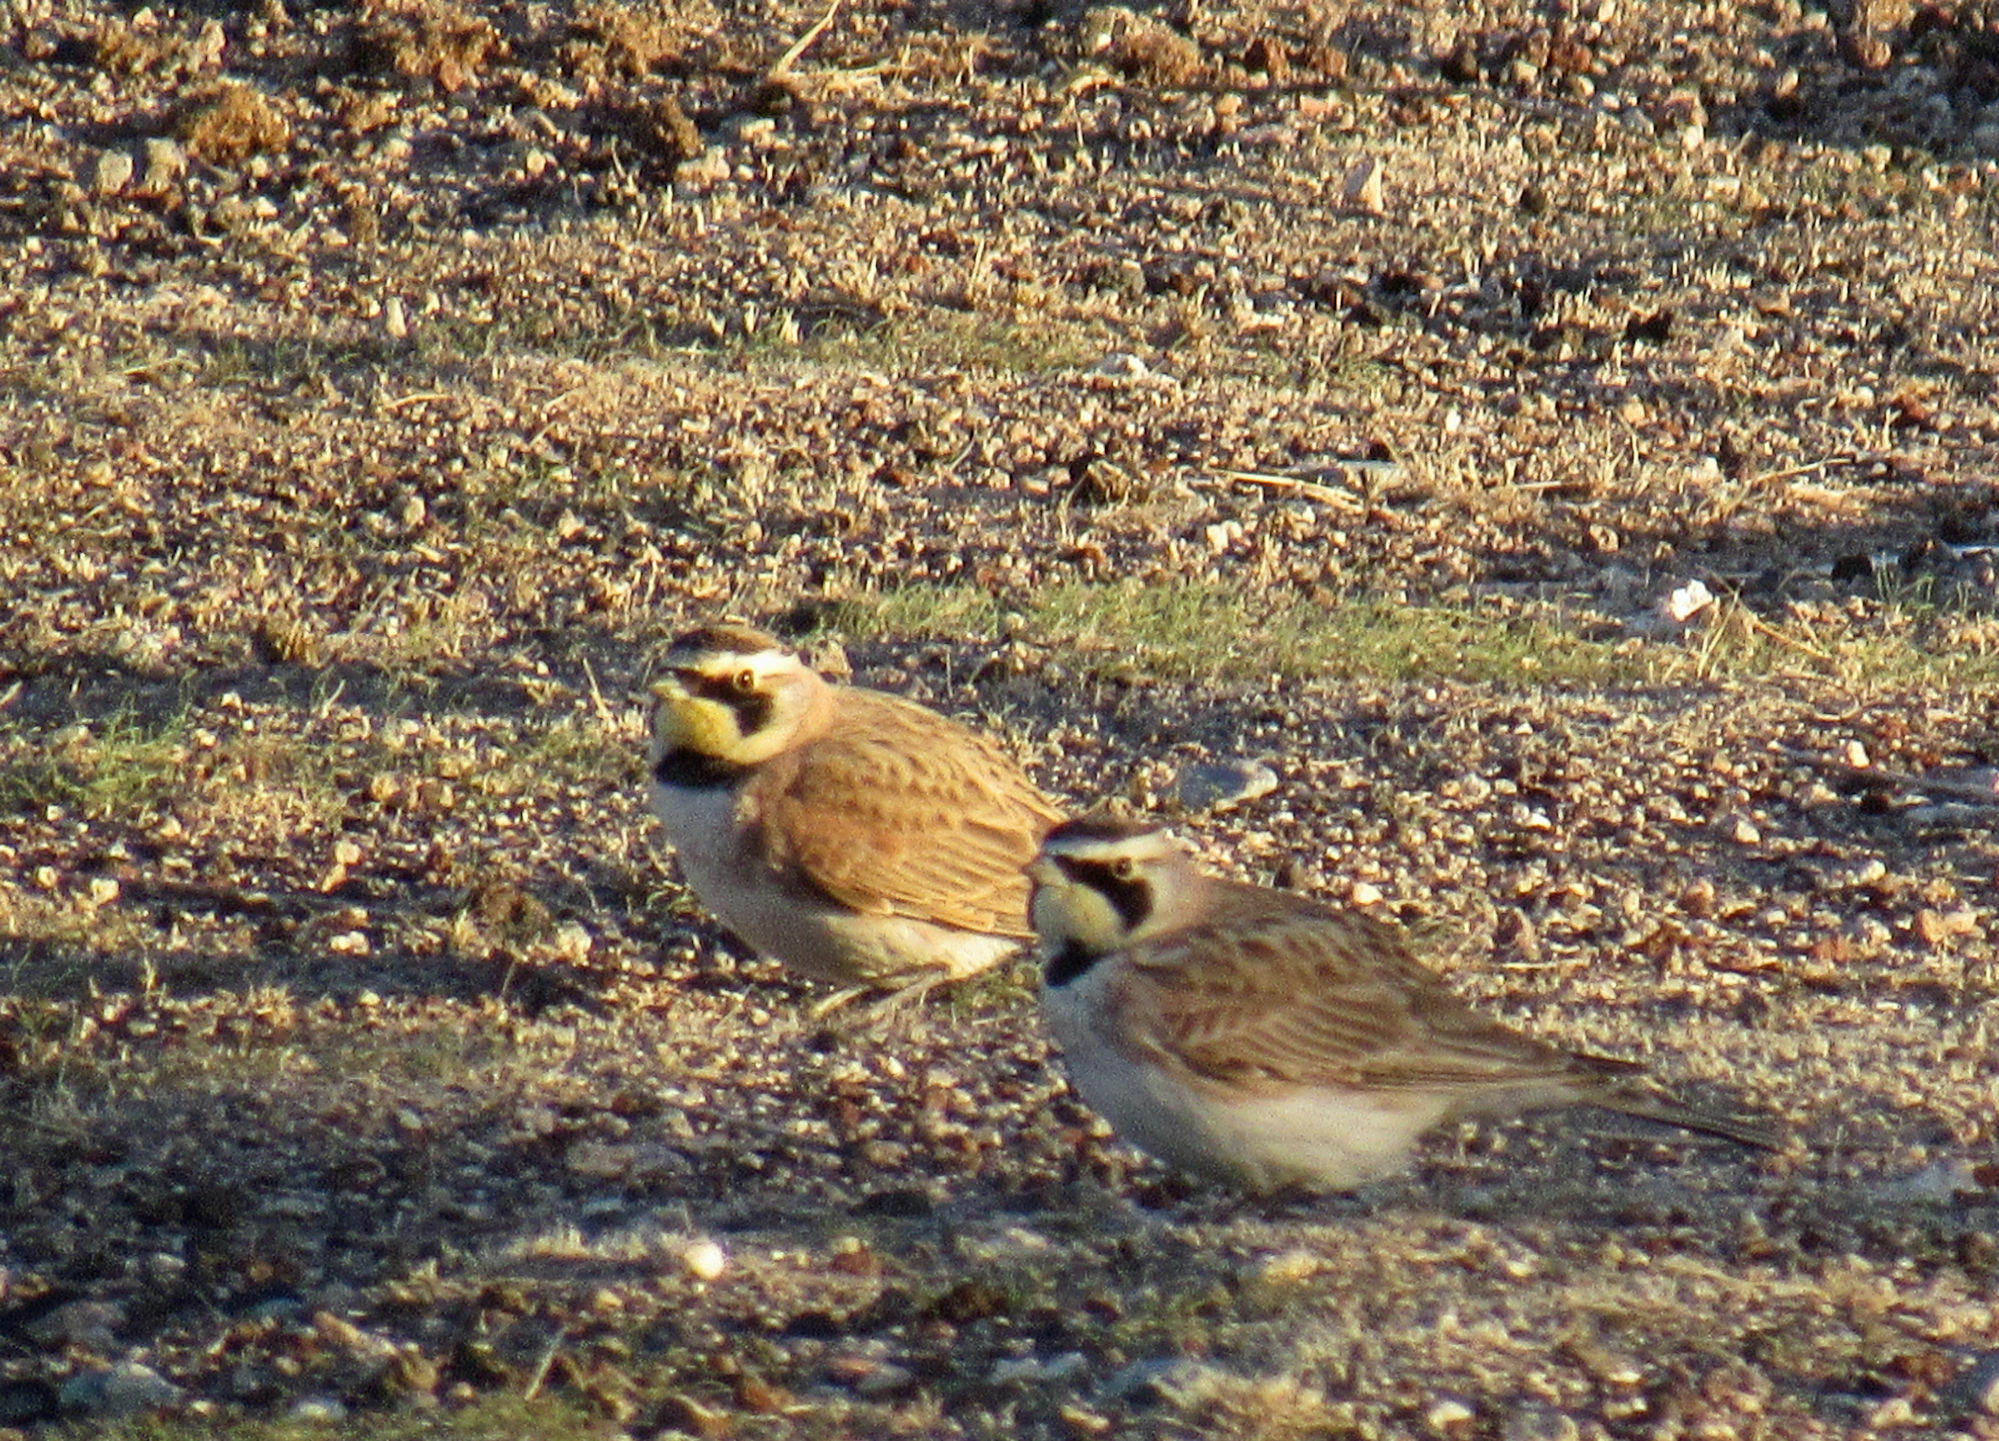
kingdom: Animalia
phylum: Chordata
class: Aves
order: Passeriformes
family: Alaudidae
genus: Eremophila
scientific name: Eremophila alpestris
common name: Horned lark
